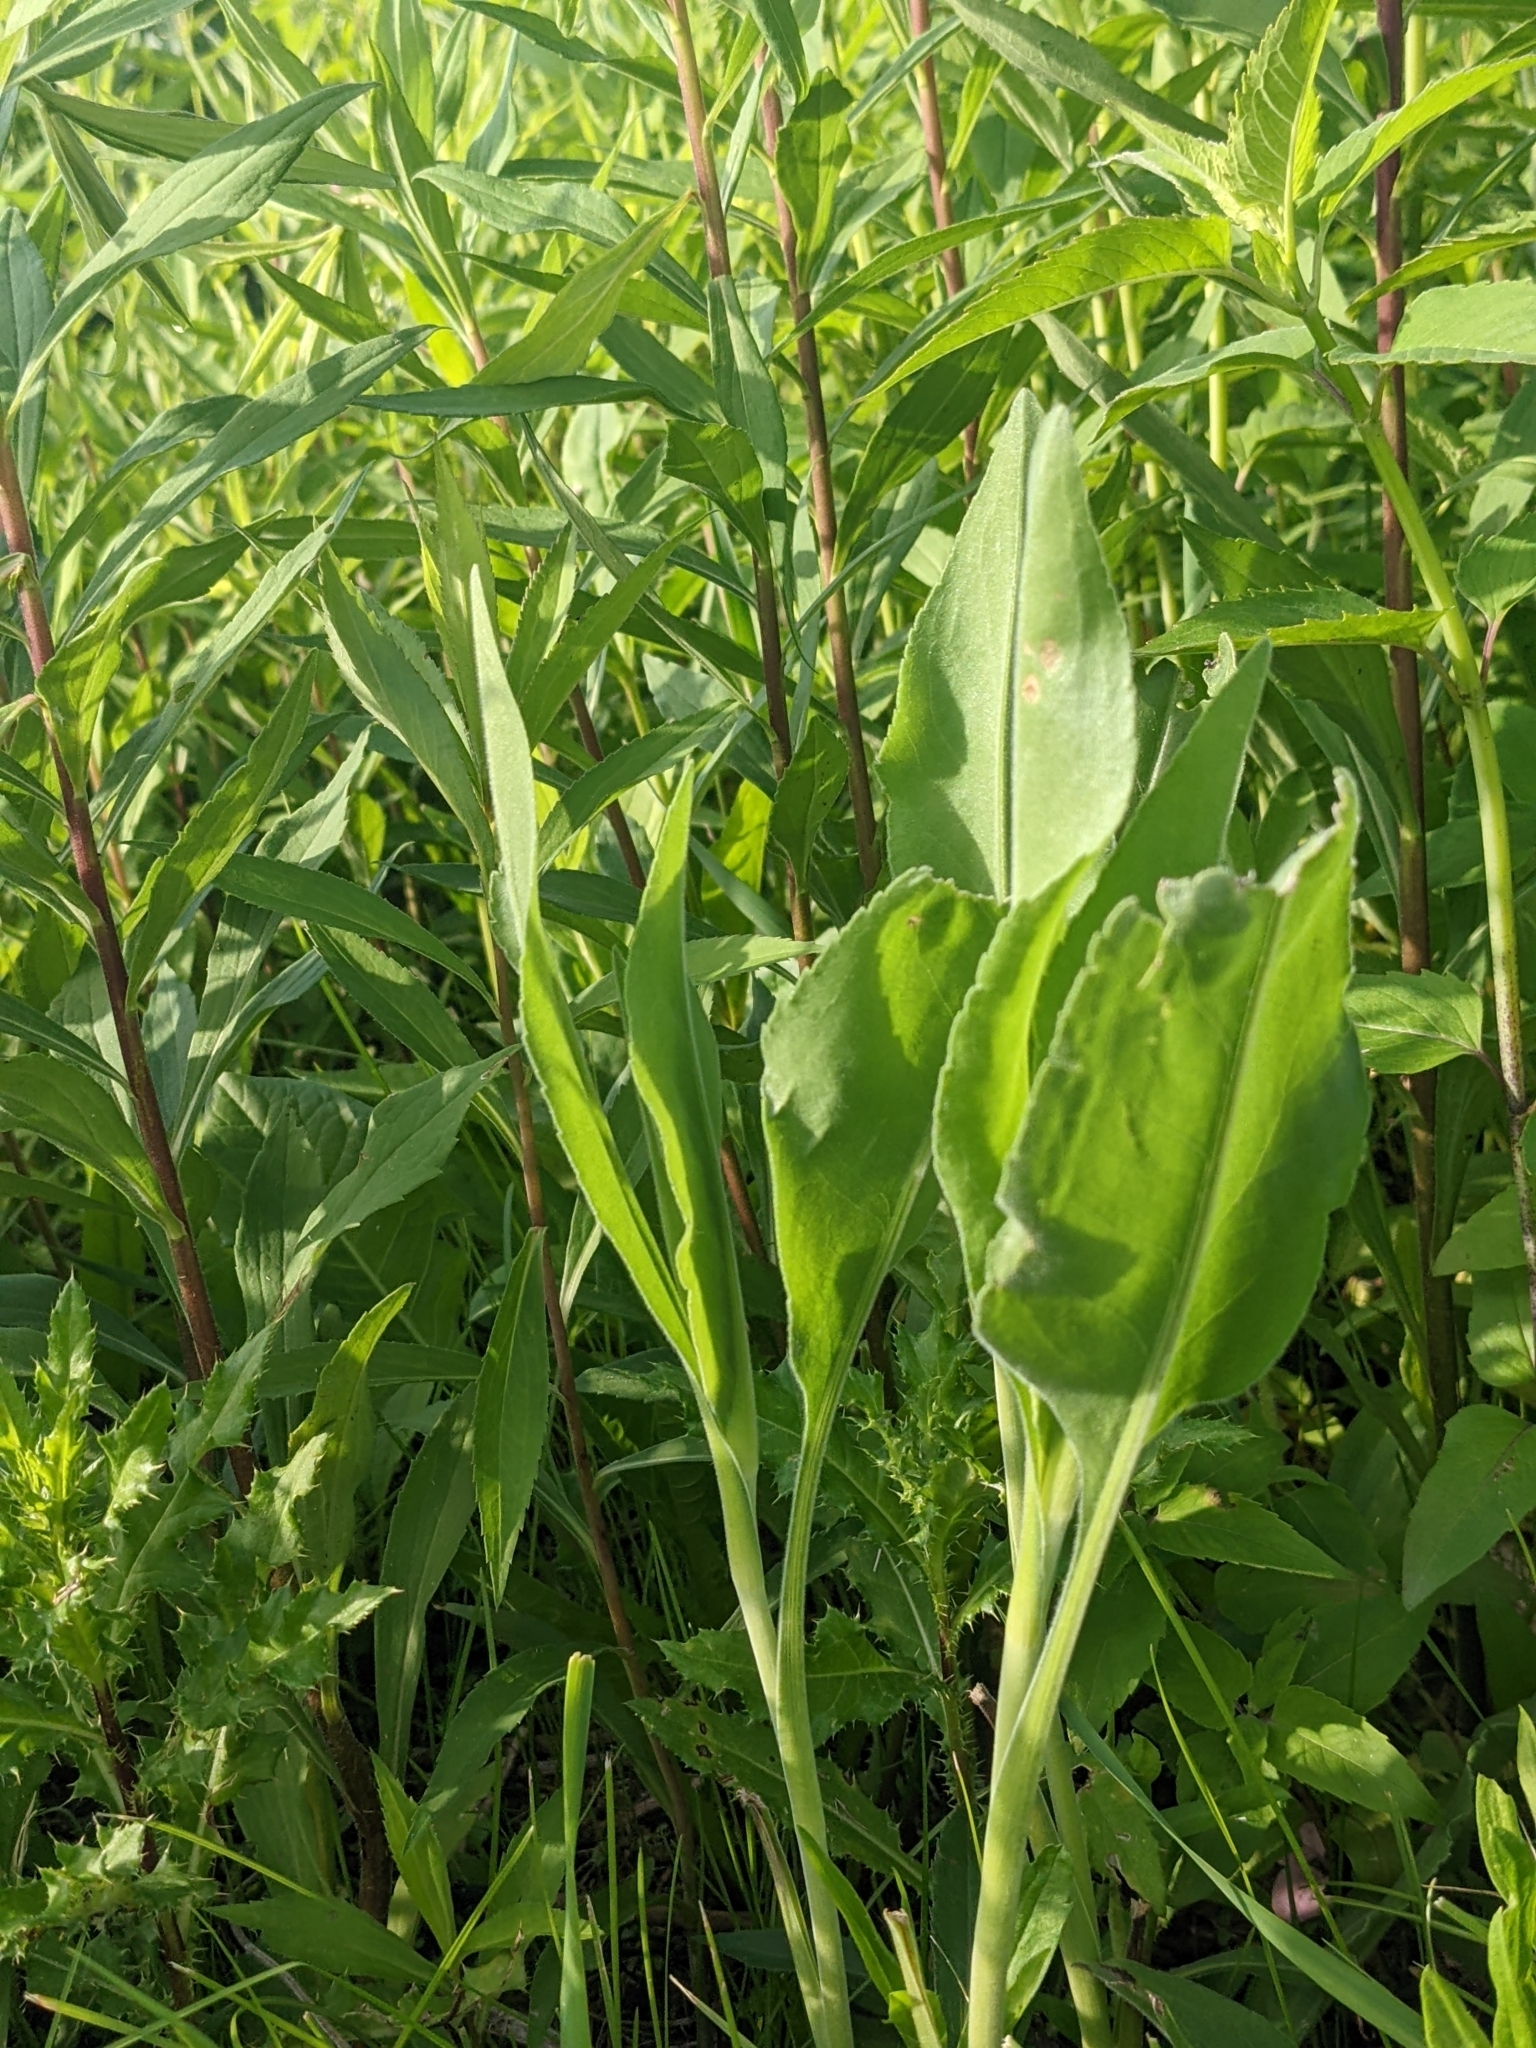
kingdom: Plantae
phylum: Tracheophyta
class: Magnoliopsida
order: Asterales
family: Asteraceae
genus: Solidago
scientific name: Solidago rigida
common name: Rigid goldenrod
